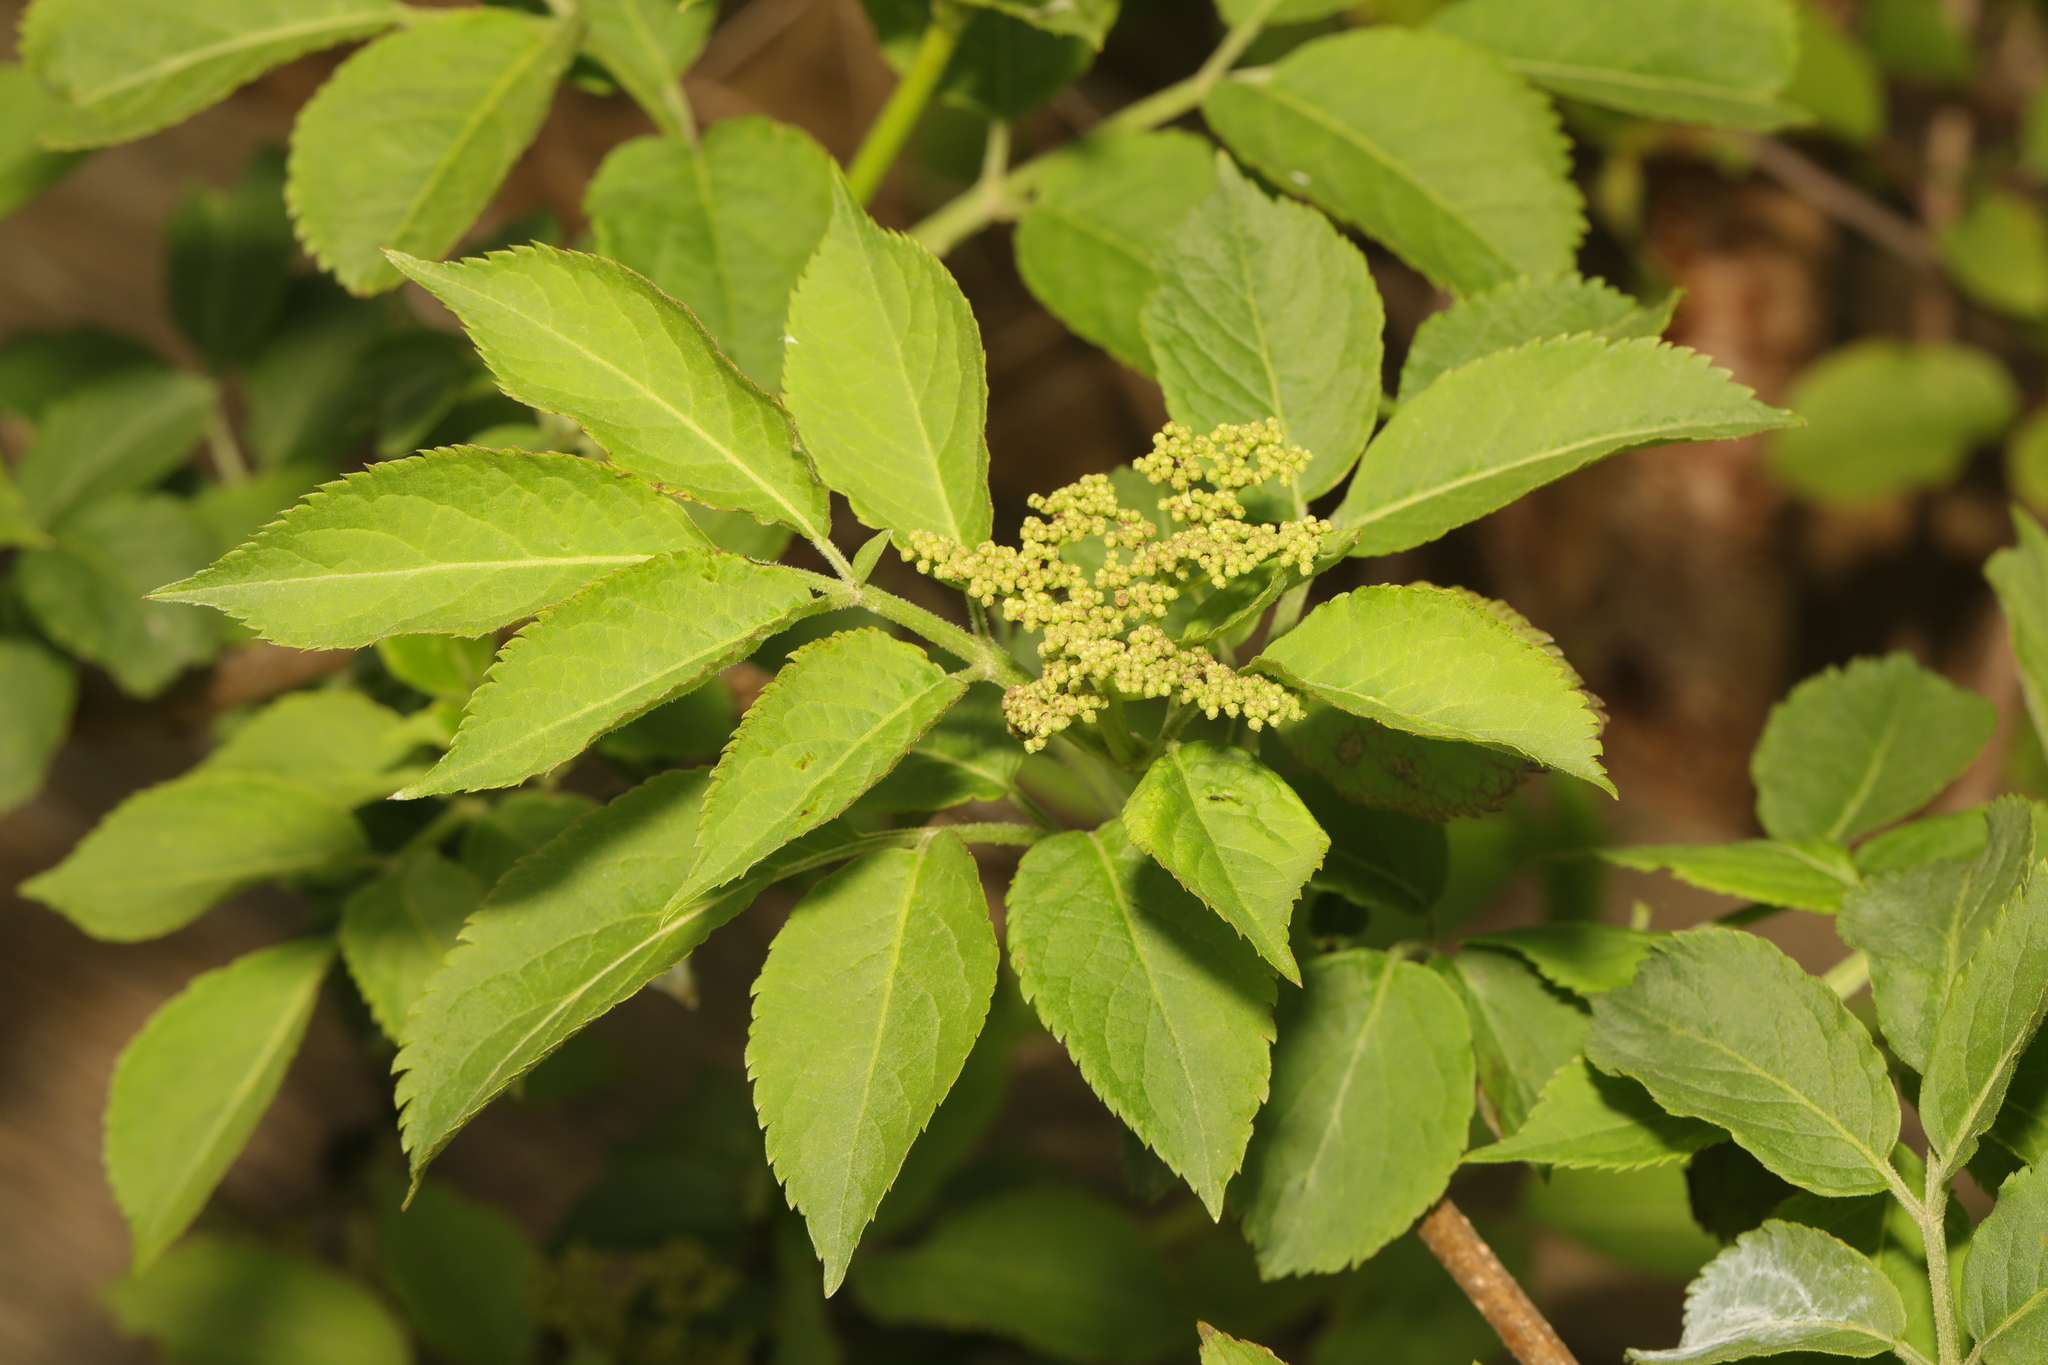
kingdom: Plantae
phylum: Tracheophyta
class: Magnoliopsida
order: Dipsacales
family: Viburnaceae
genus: Sambucus
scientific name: Sambucus nigra
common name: Elder
